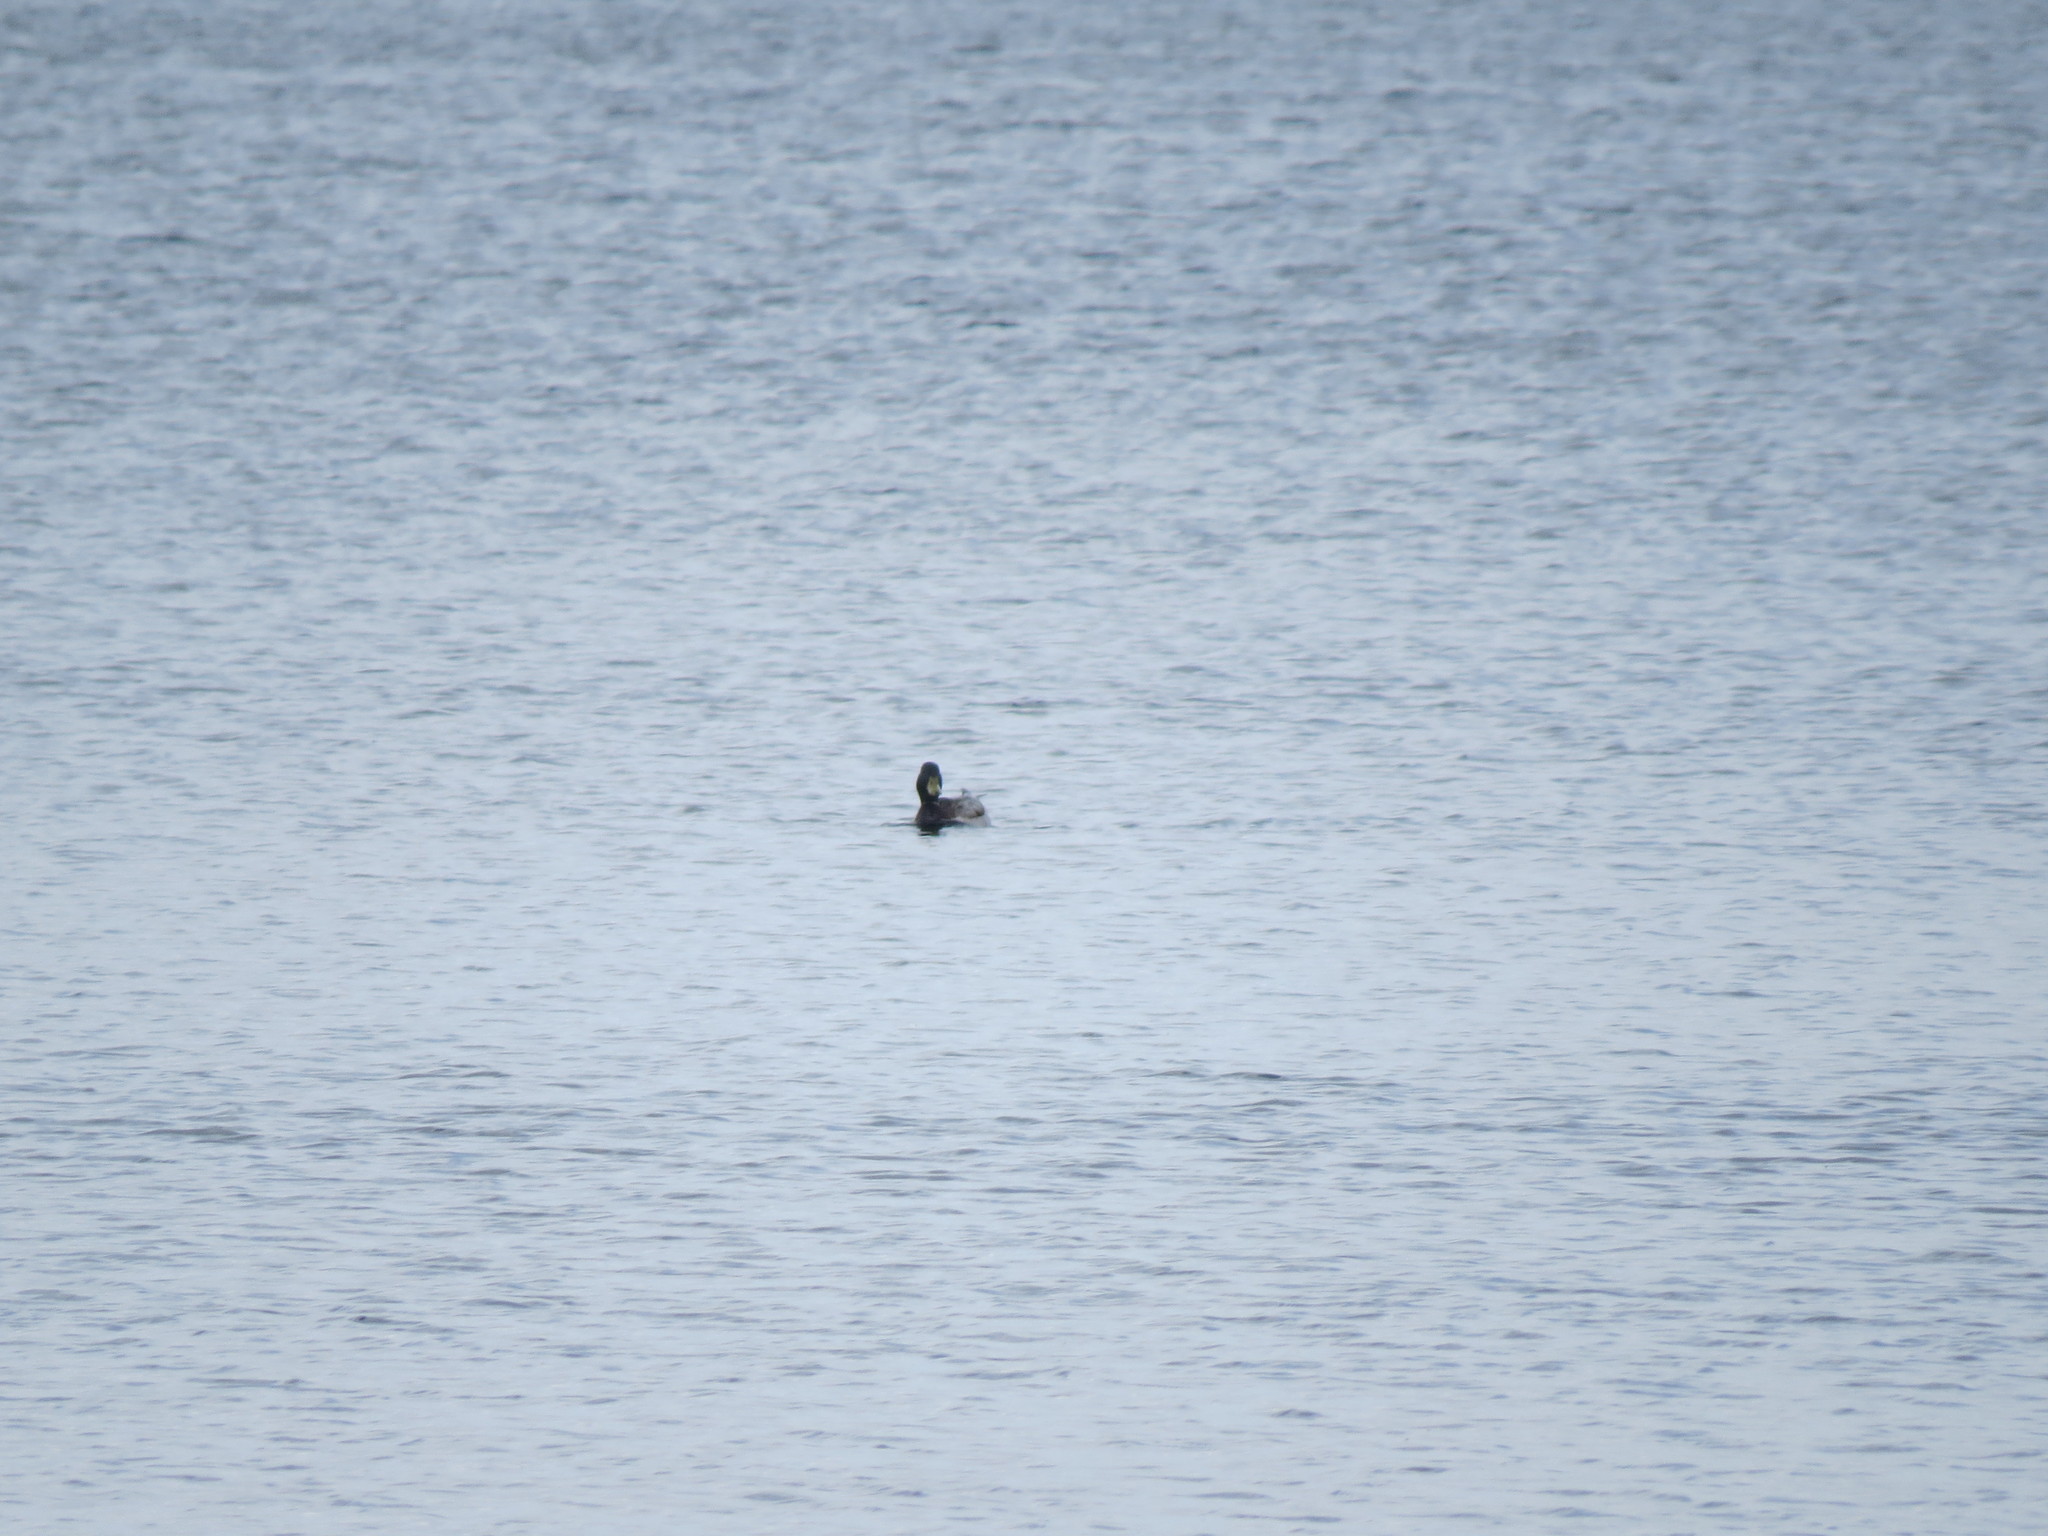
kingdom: Animalia
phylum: Chordata
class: Aves
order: Anseriformes
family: Anatidae
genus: Anas
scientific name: Anas platyrhynchos
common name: Mallard
